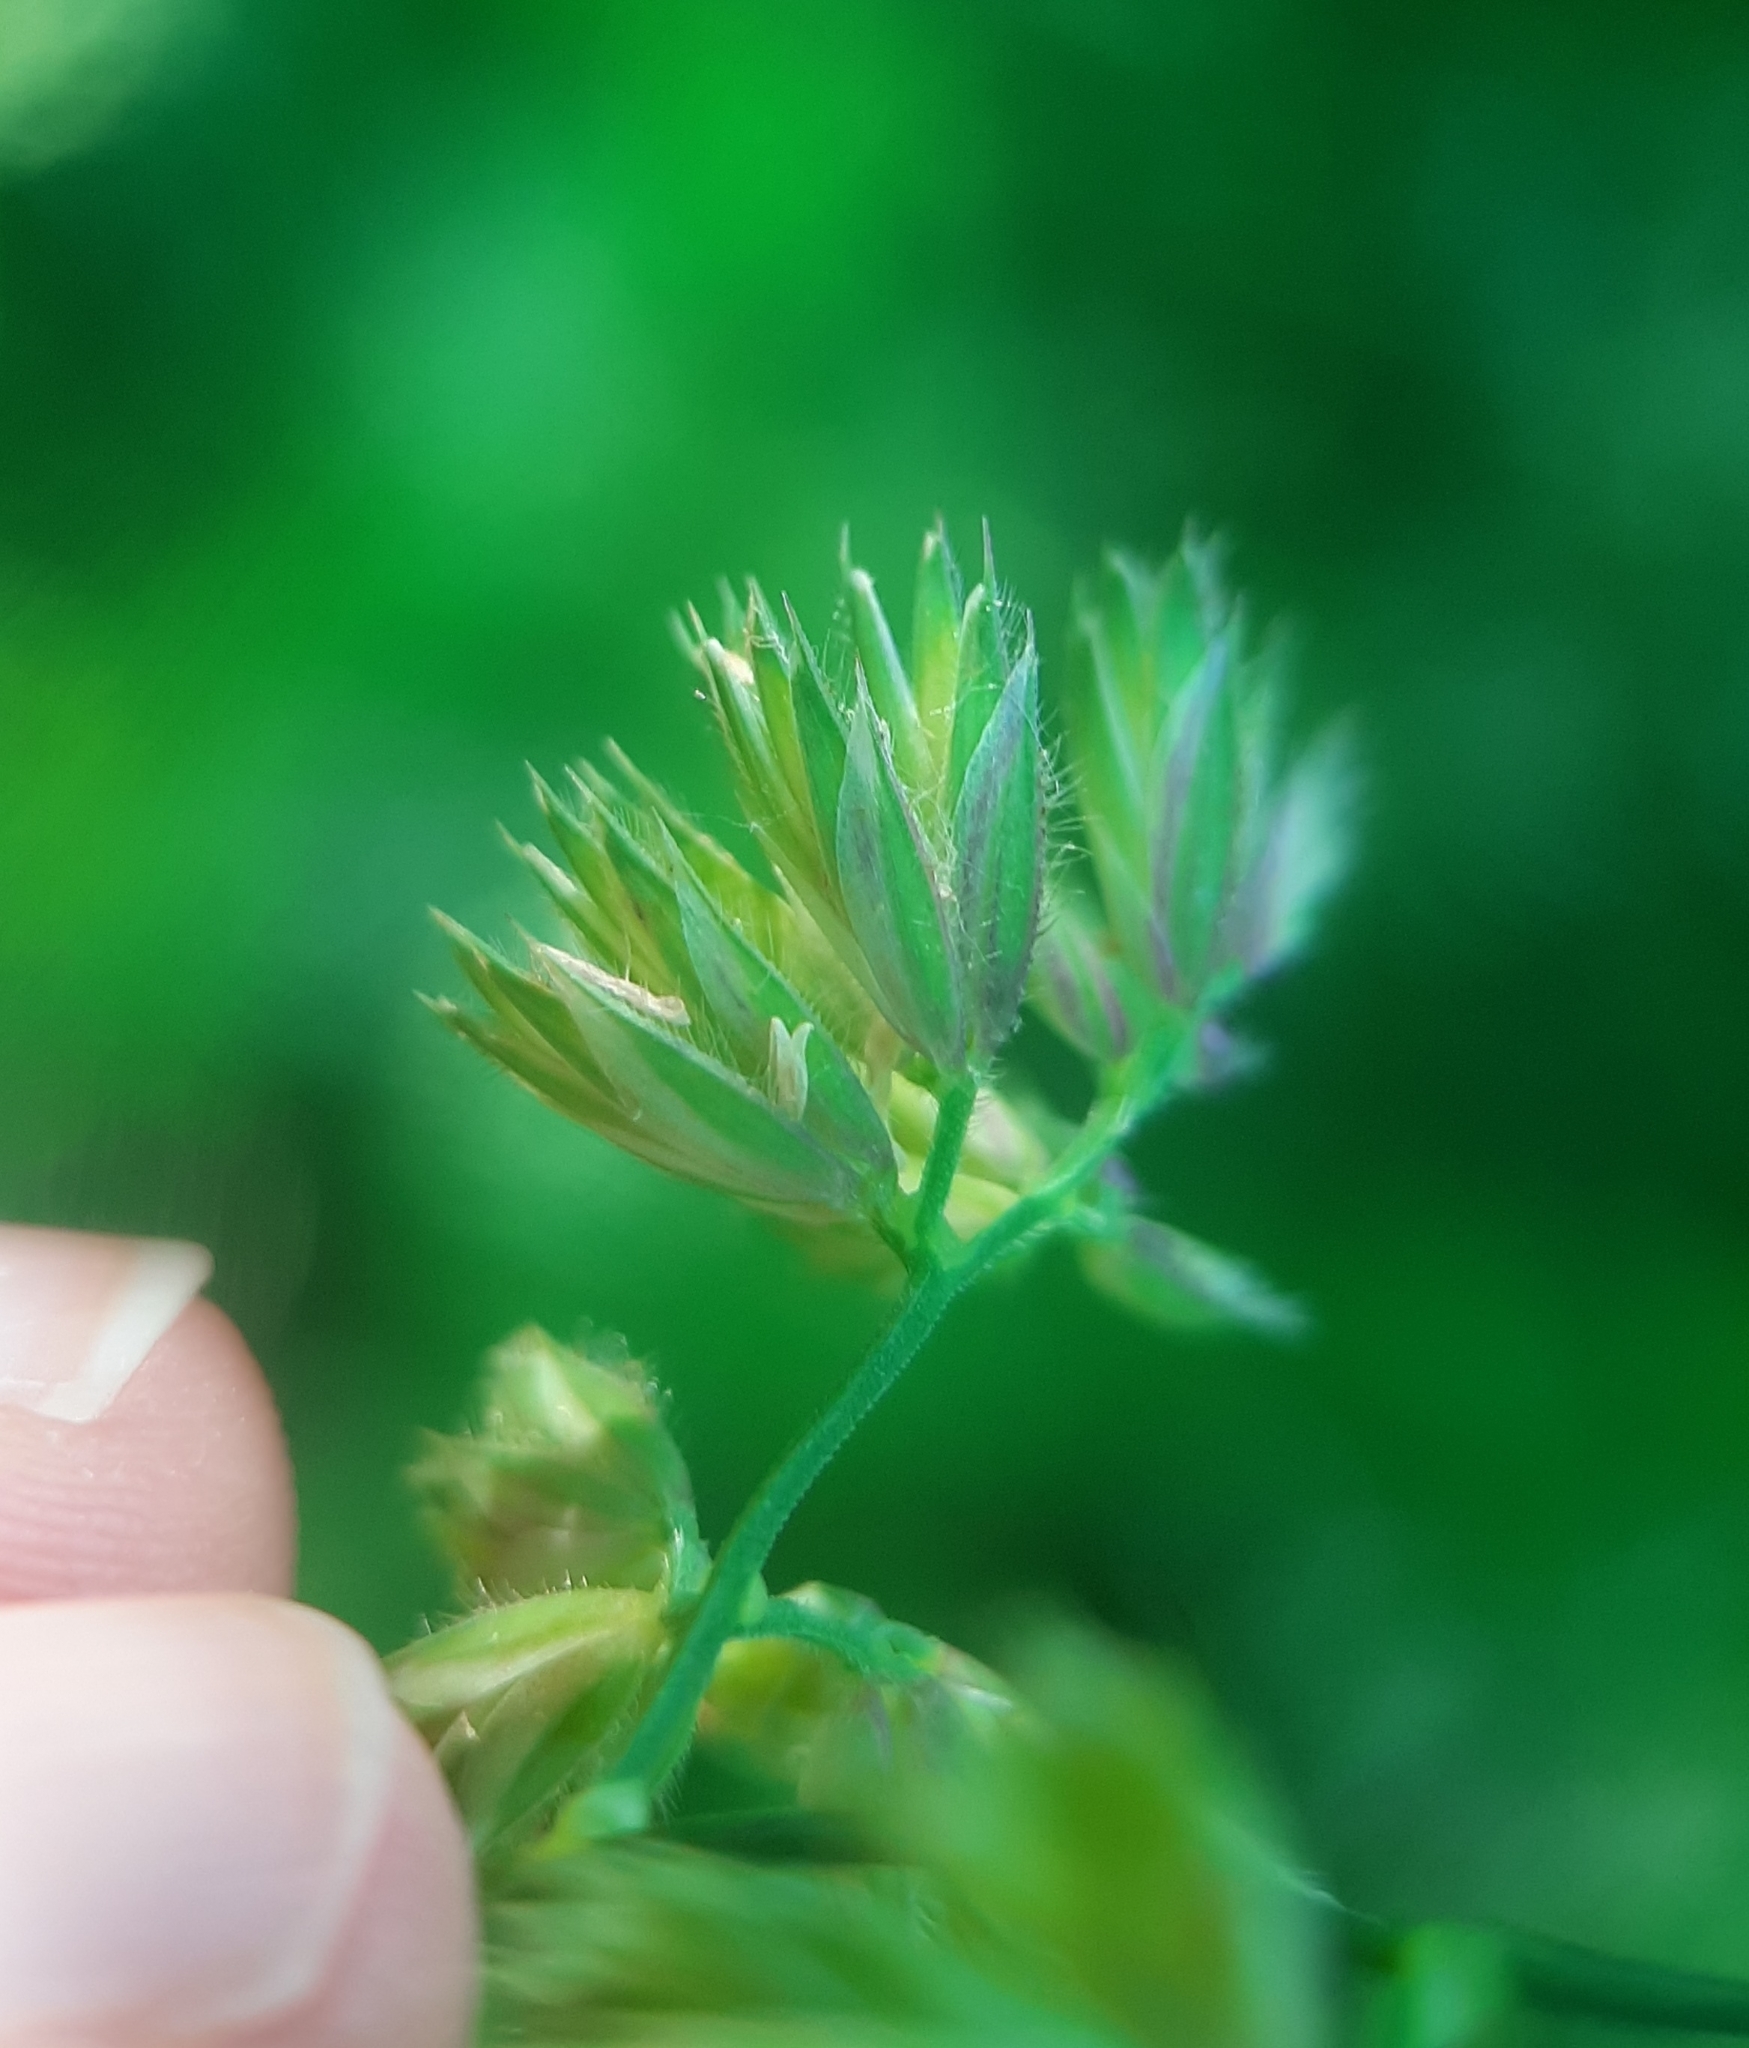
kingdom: Plantae
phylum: Tracheophyta
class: Liliopsida
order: Poales
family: Poaceae
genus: Dactylis
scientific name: Dactylis glomerata
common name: Orchardgrass
